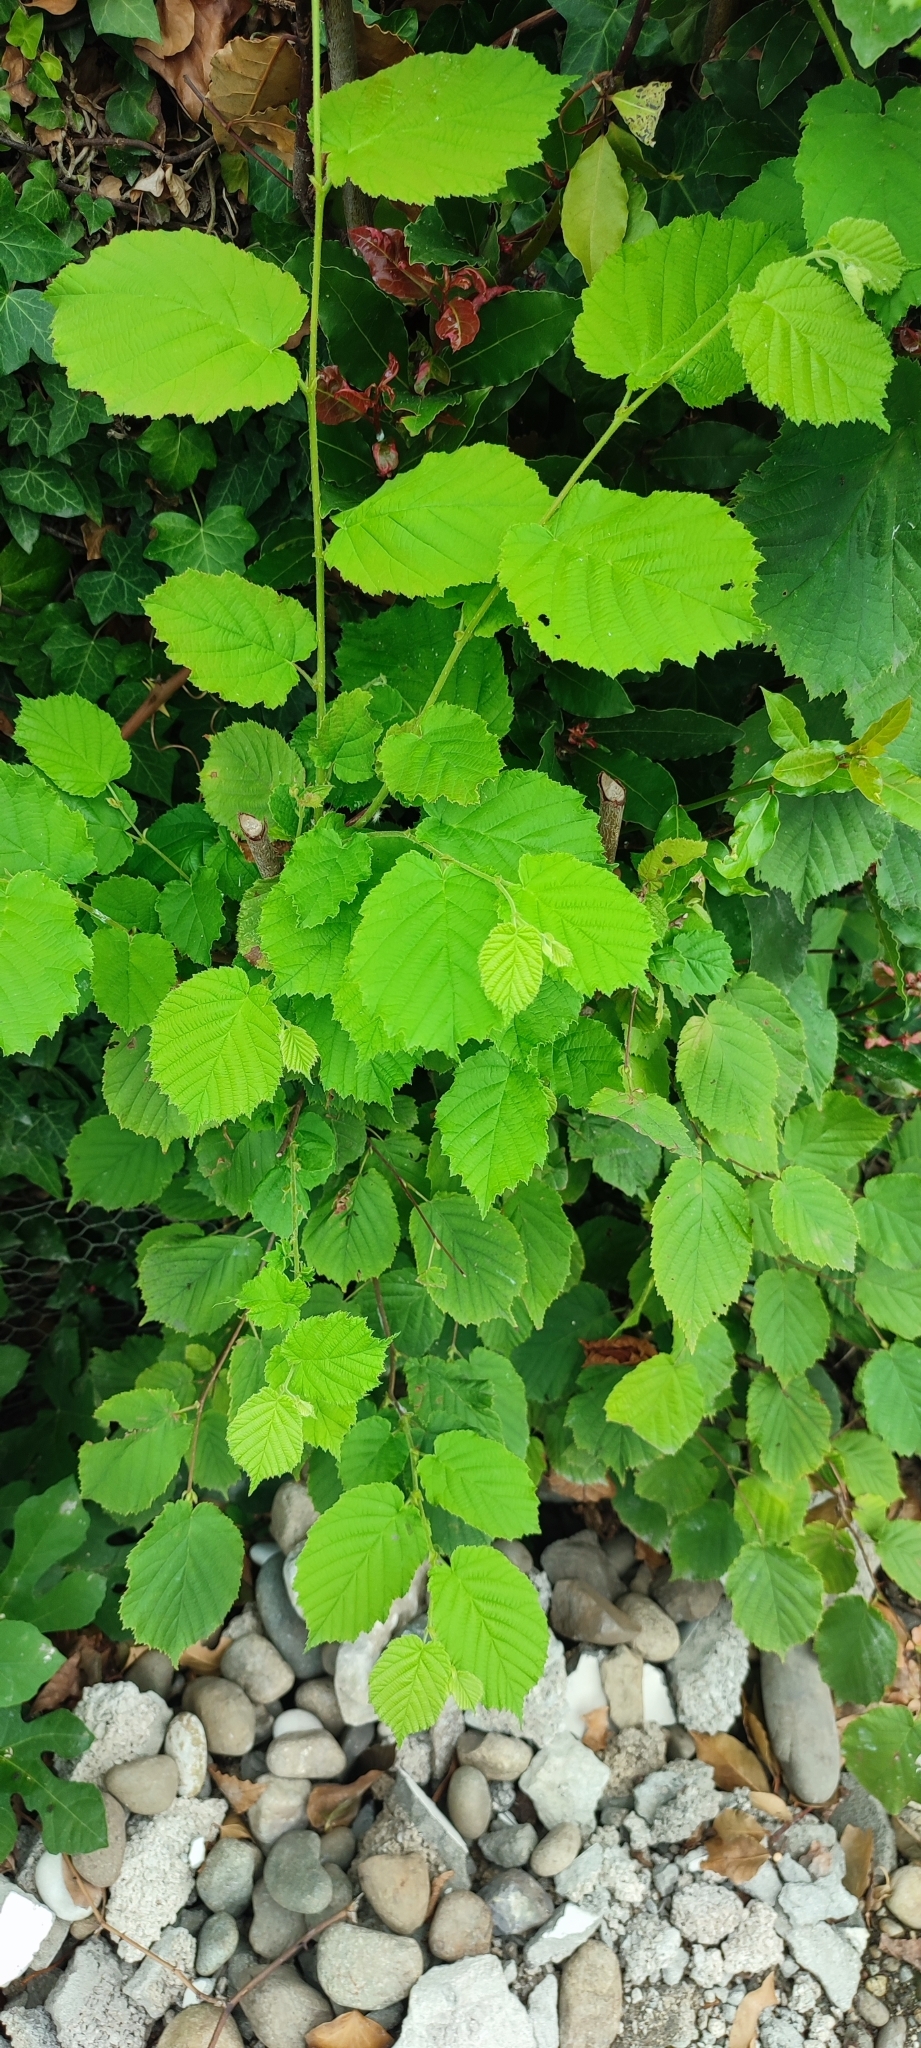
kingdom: Plantae
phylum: Tracheophyta
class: Magnoliopsida
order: Fagales
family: Betulaceae
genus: Corylus
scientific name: Corylus avellana
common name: European hazel
